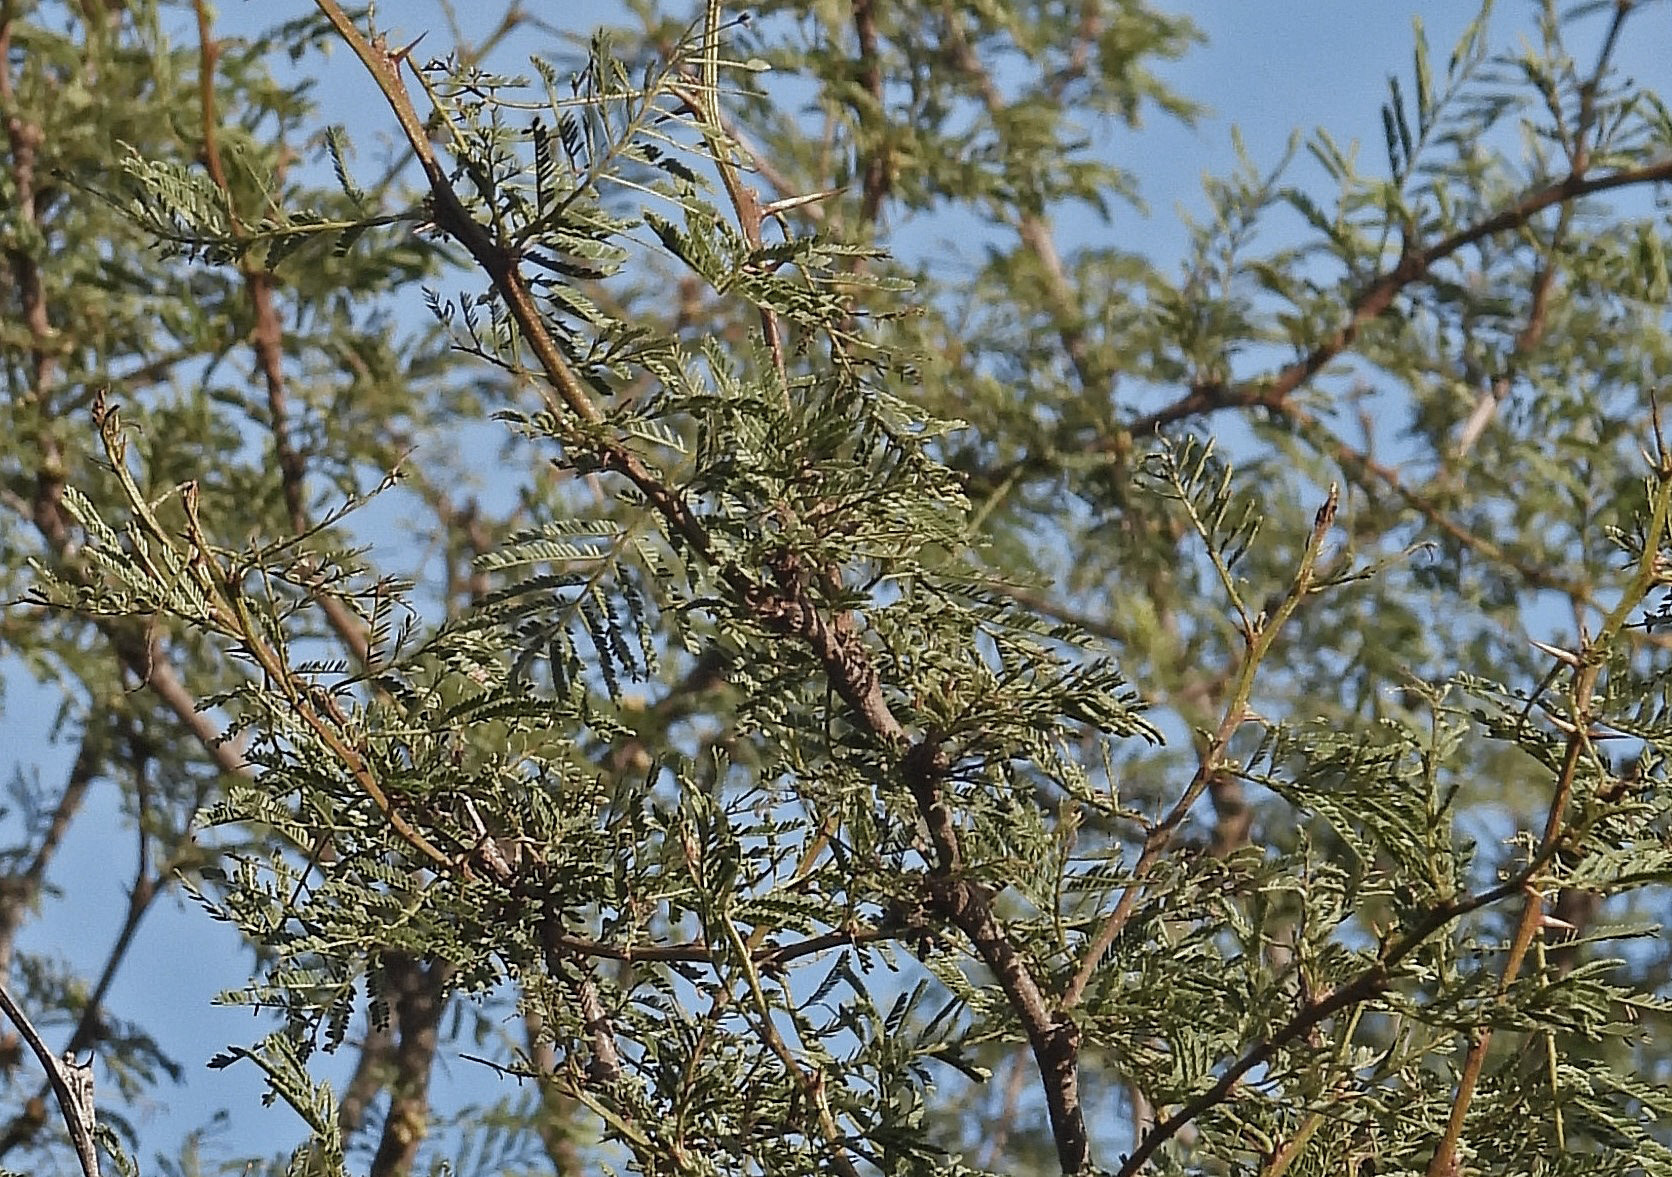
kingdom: Plantae
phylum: Tracheophyta
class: Magnoliopsida
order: Fabales
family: Fabaceae
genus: Vachellia
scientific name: Vachellia caven
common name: Roman cassie
